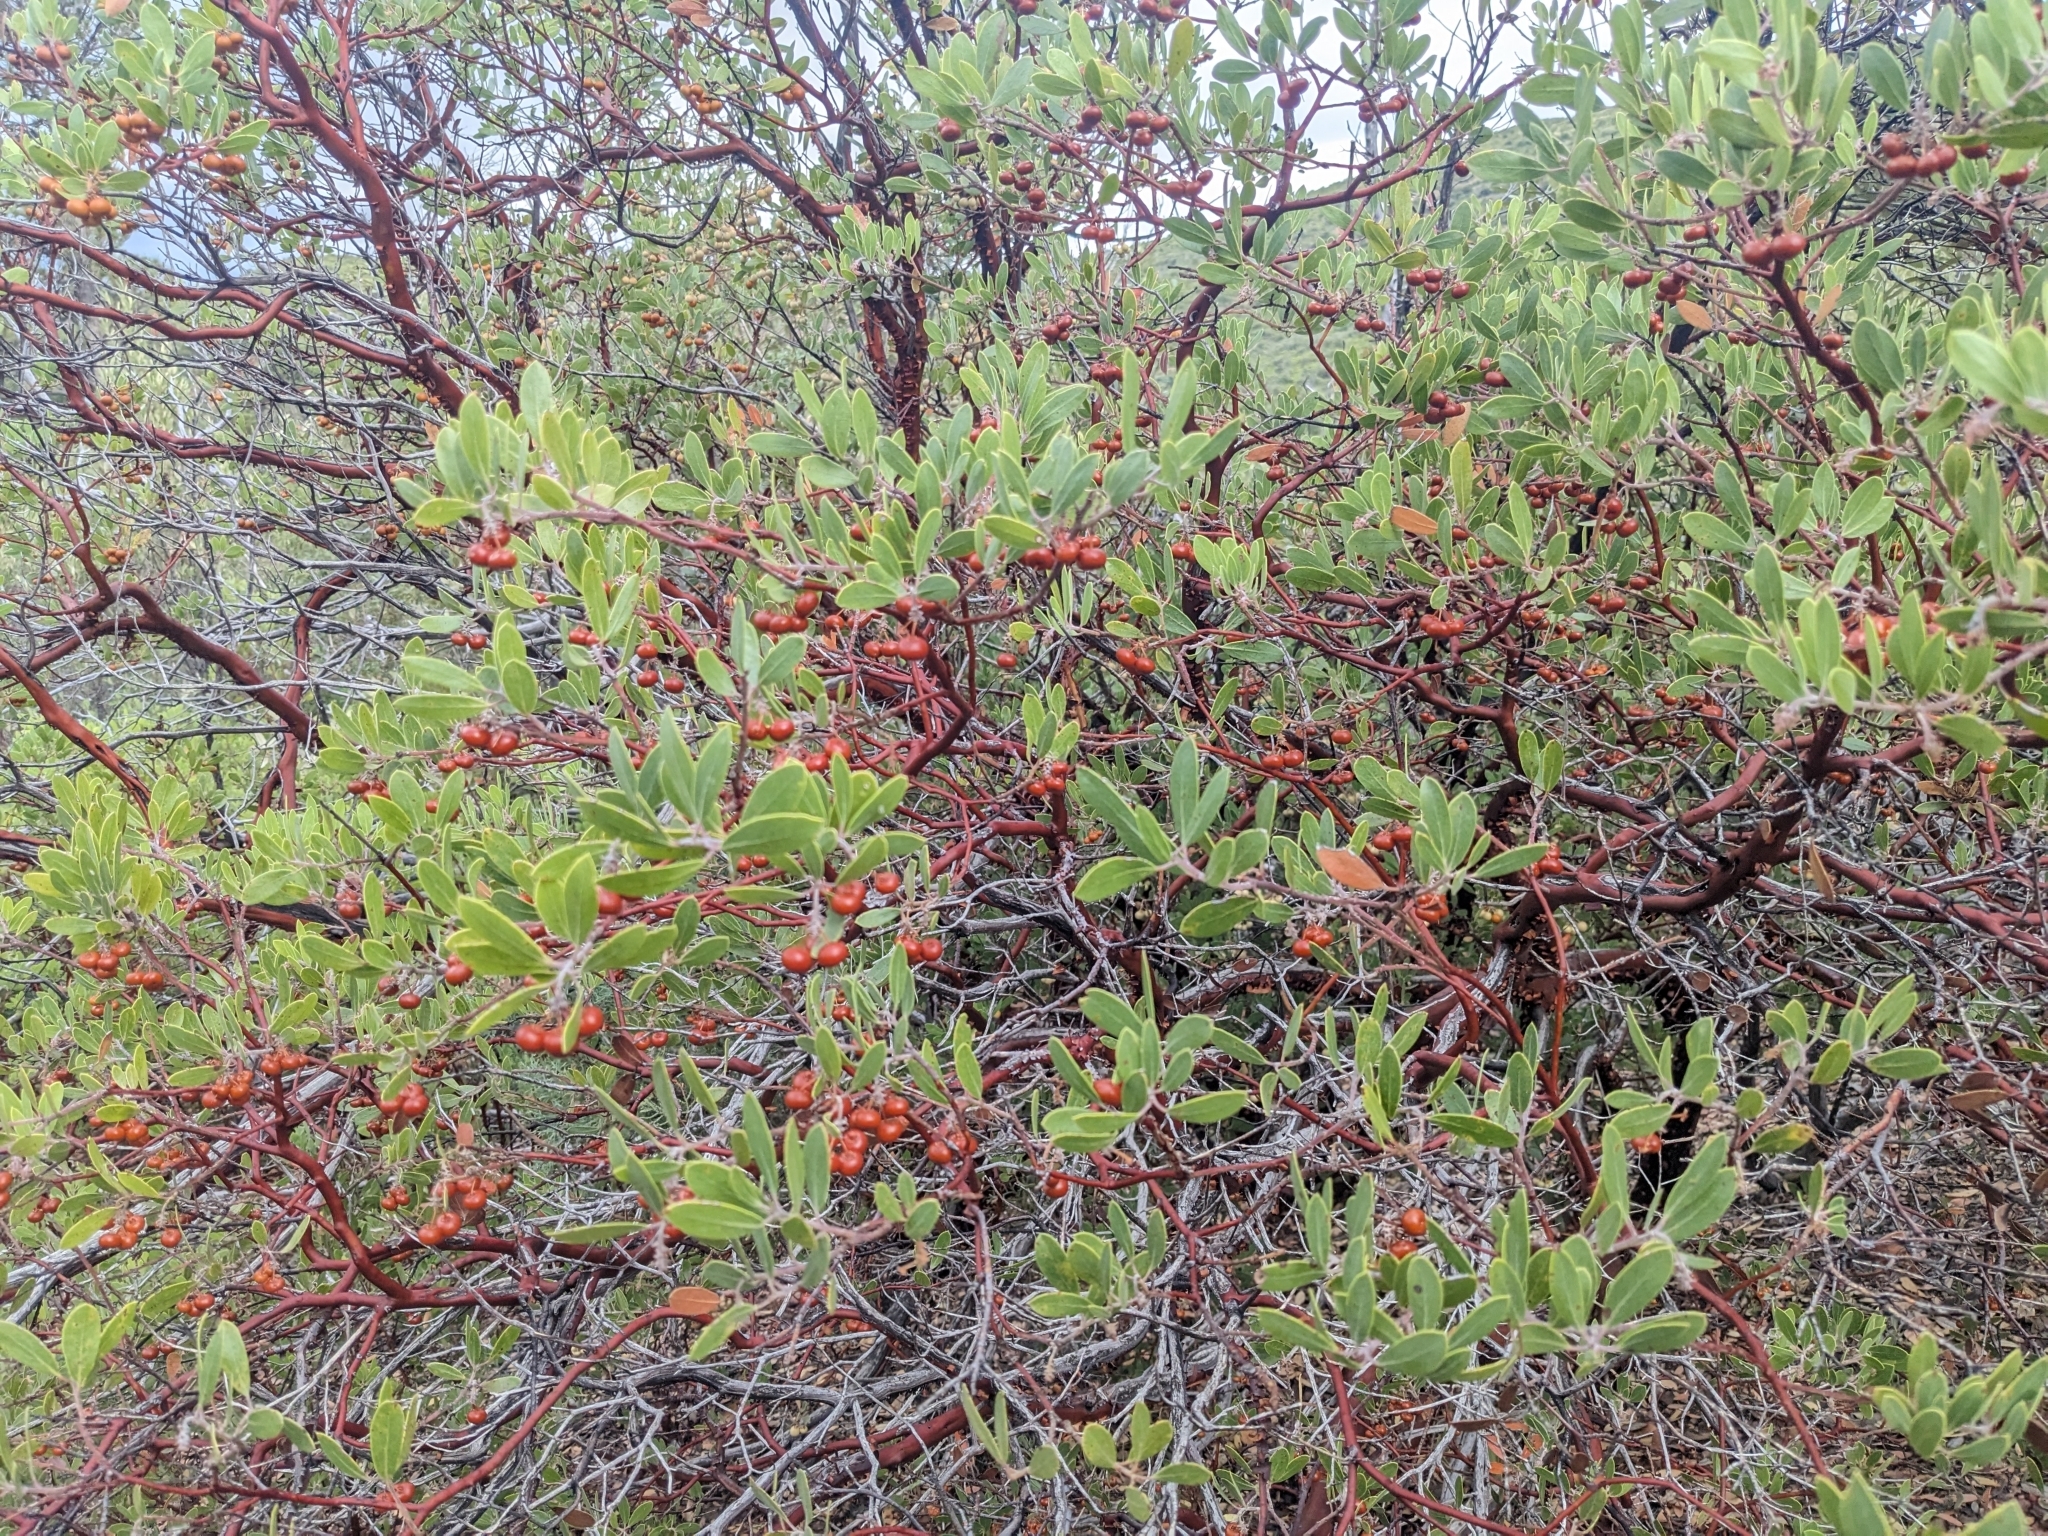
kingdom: Plantae
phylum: Tracheophyta
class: Magnoliopsida
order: Ericales
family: Ericaceae
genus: Arctostaphylos
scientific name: Arctostaphylos pungens
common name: Mexican manzanita
